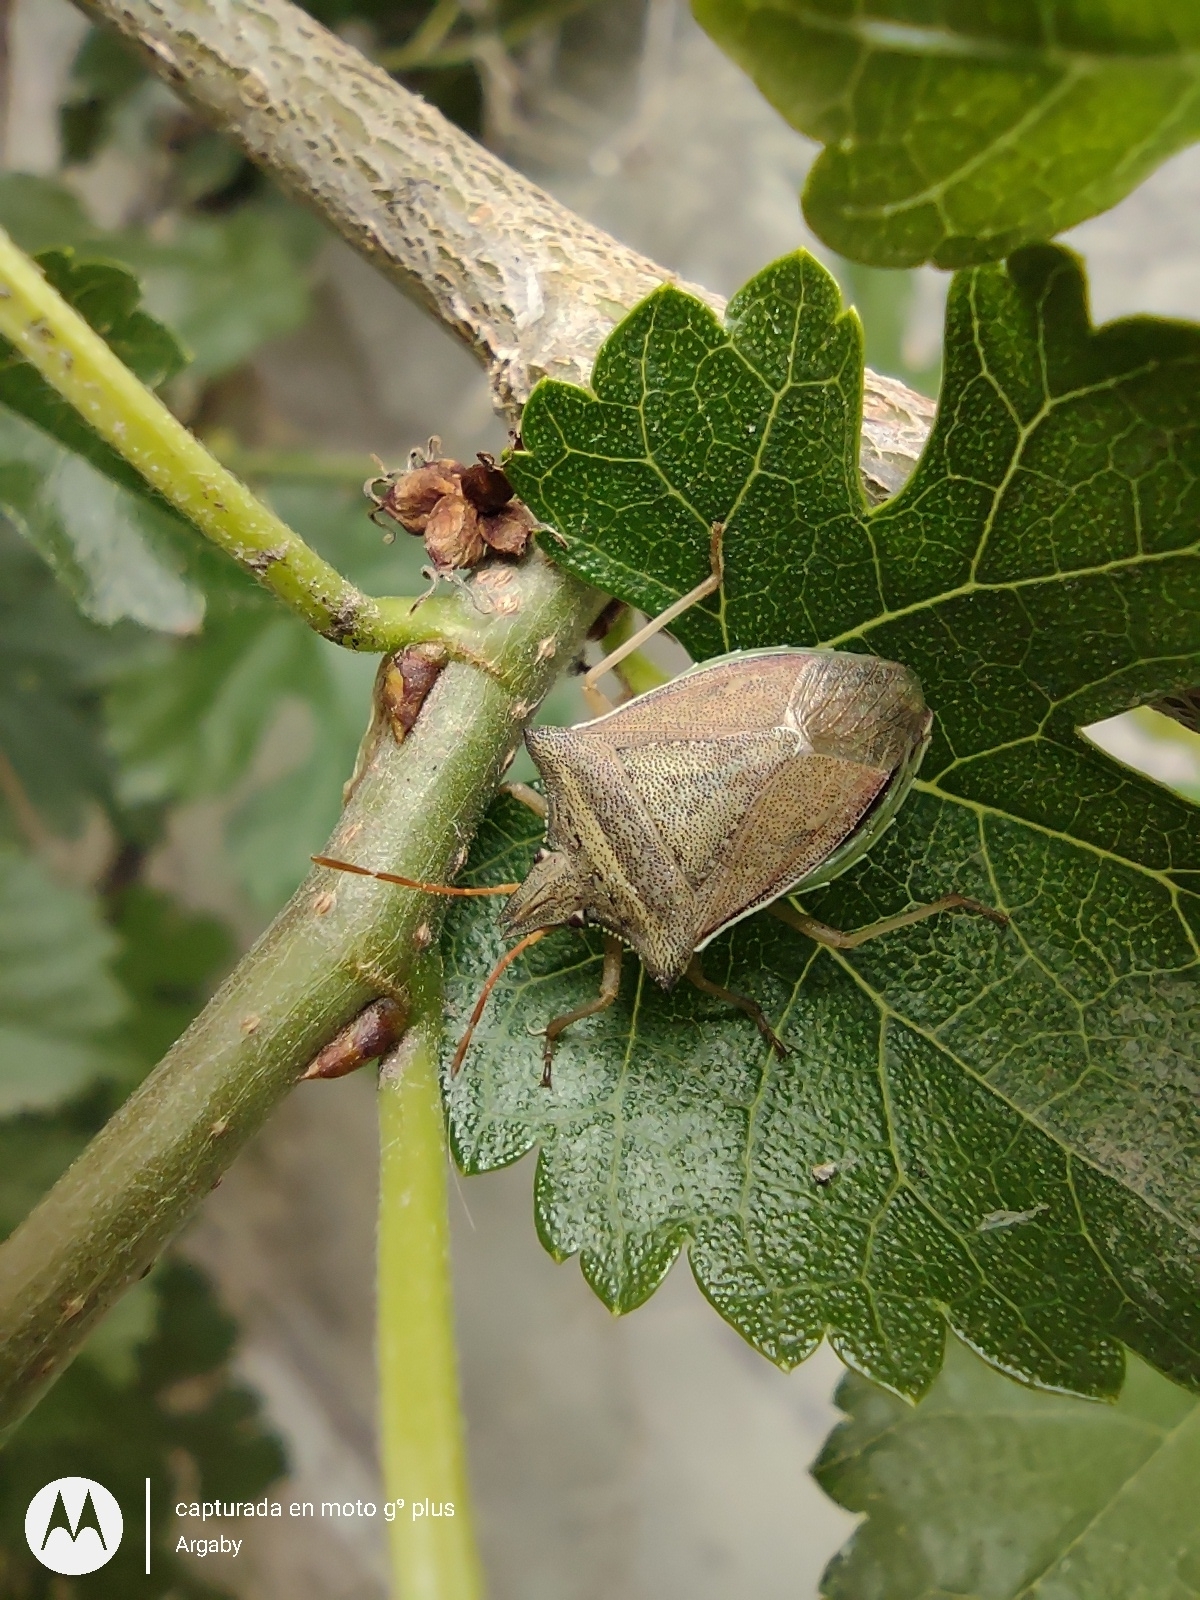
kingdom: Animalia
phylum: Arthropoda
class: Insecta
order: Hemiptera
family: Pentatomidae
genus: Diceraeus
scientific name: Diceraeus furcatus
